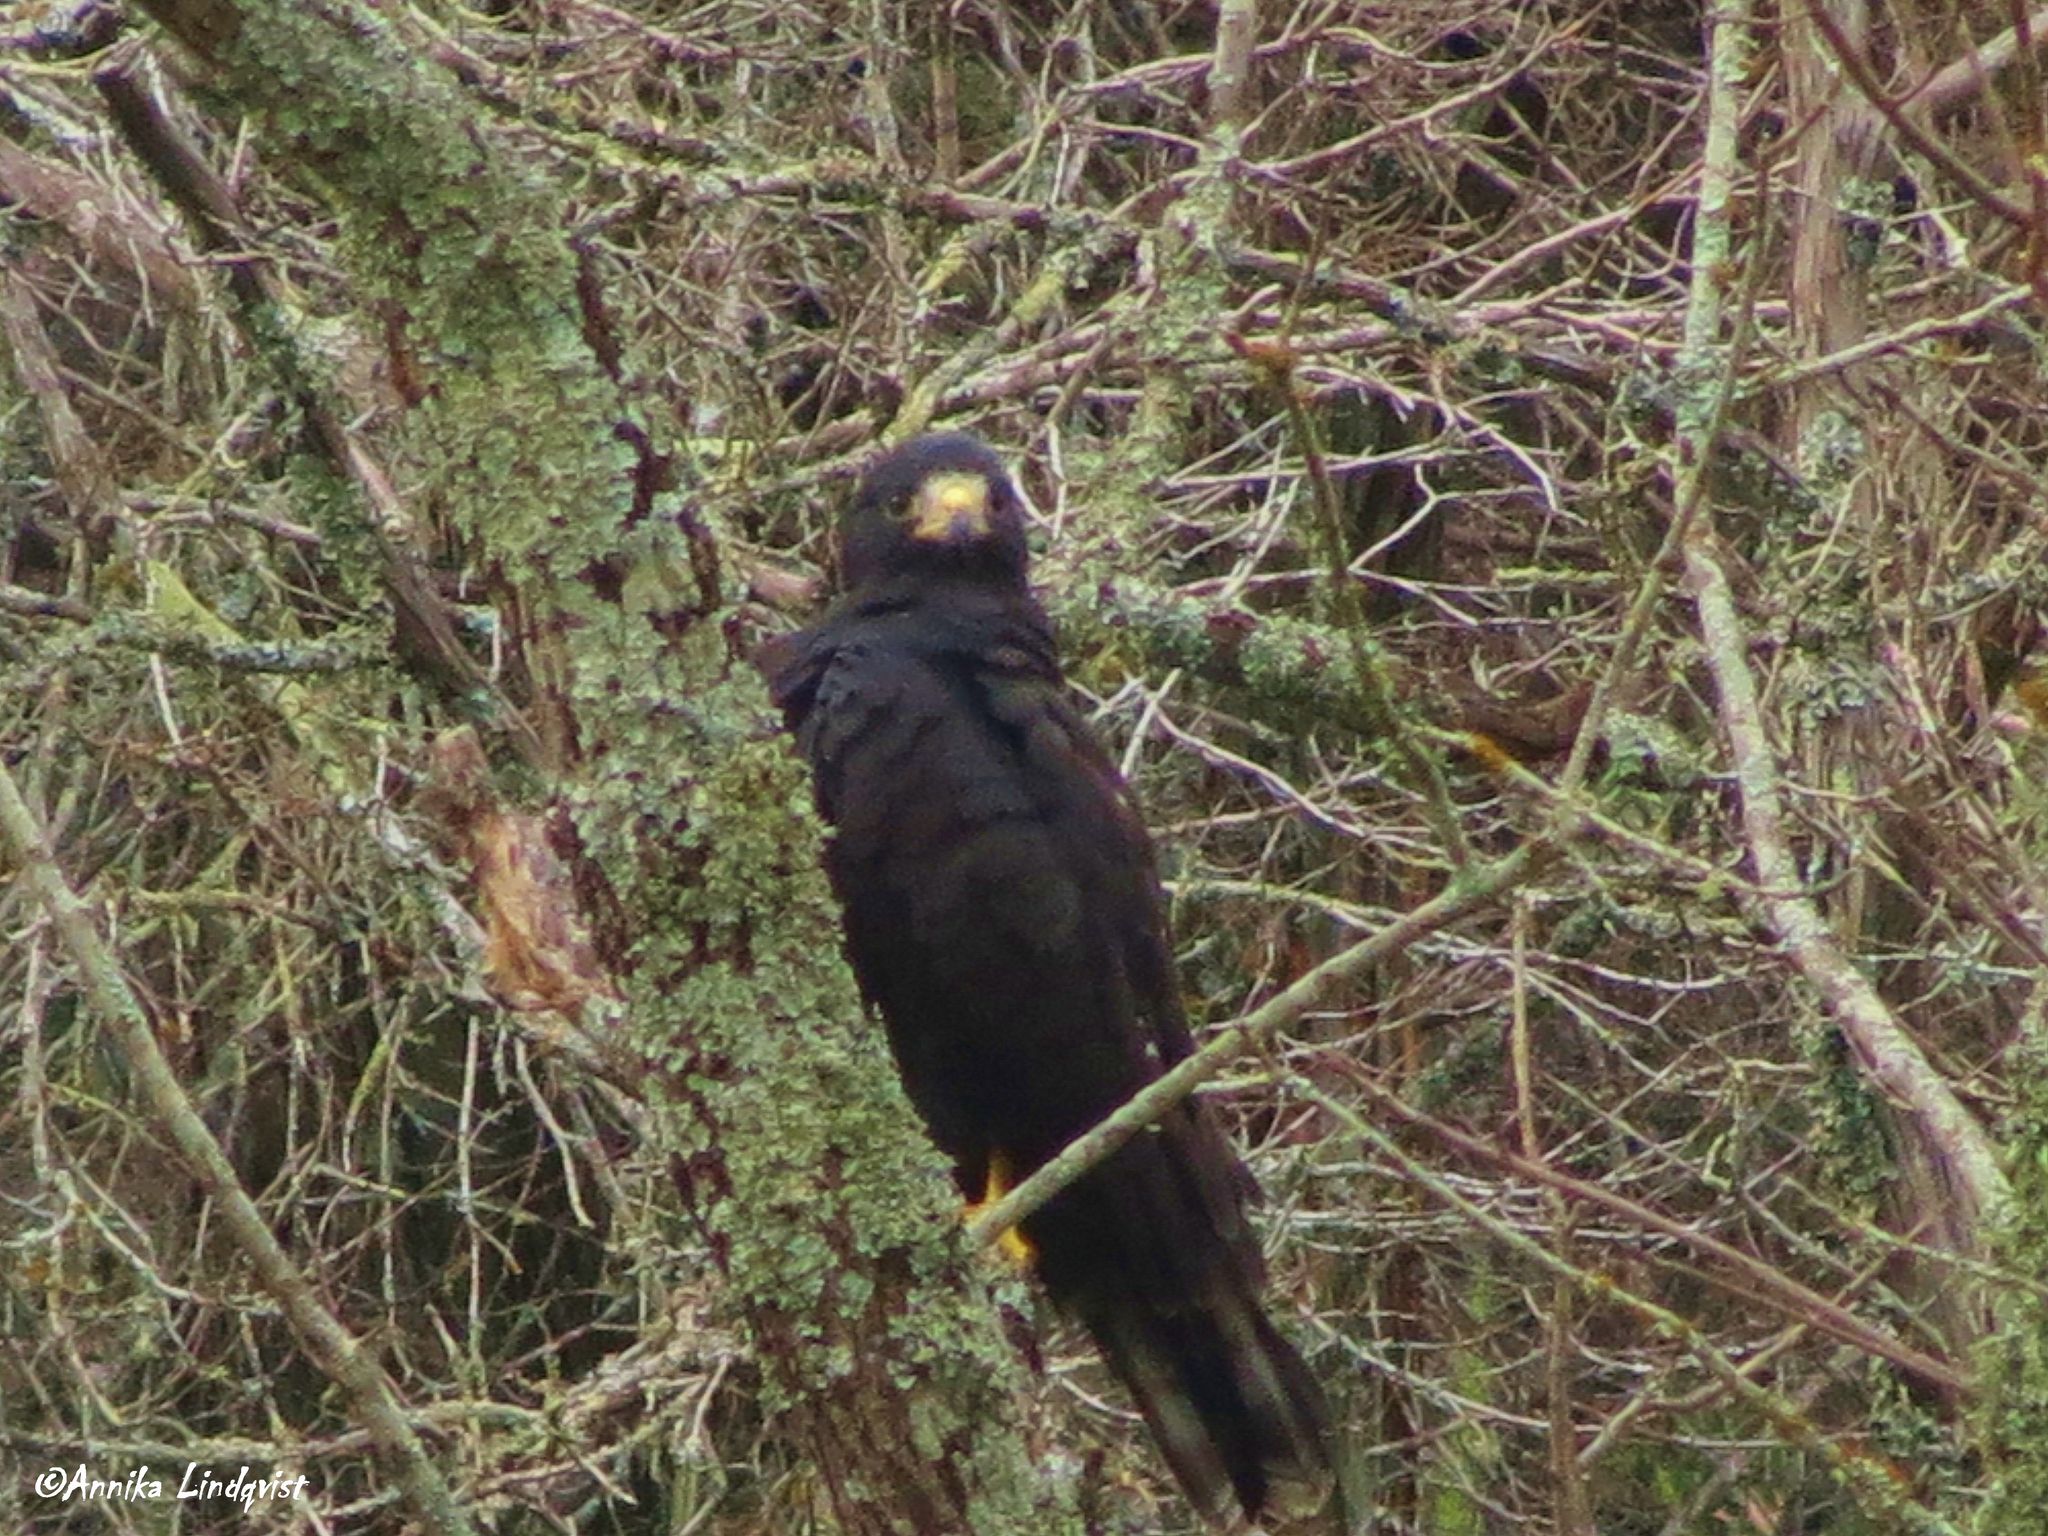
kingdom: Animalia
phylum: Chordata
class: Aves
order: Accipitriformes
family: Accipitridae
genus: Buteo
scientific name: Buteo albonotatus
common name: Zone-tailed hawk
